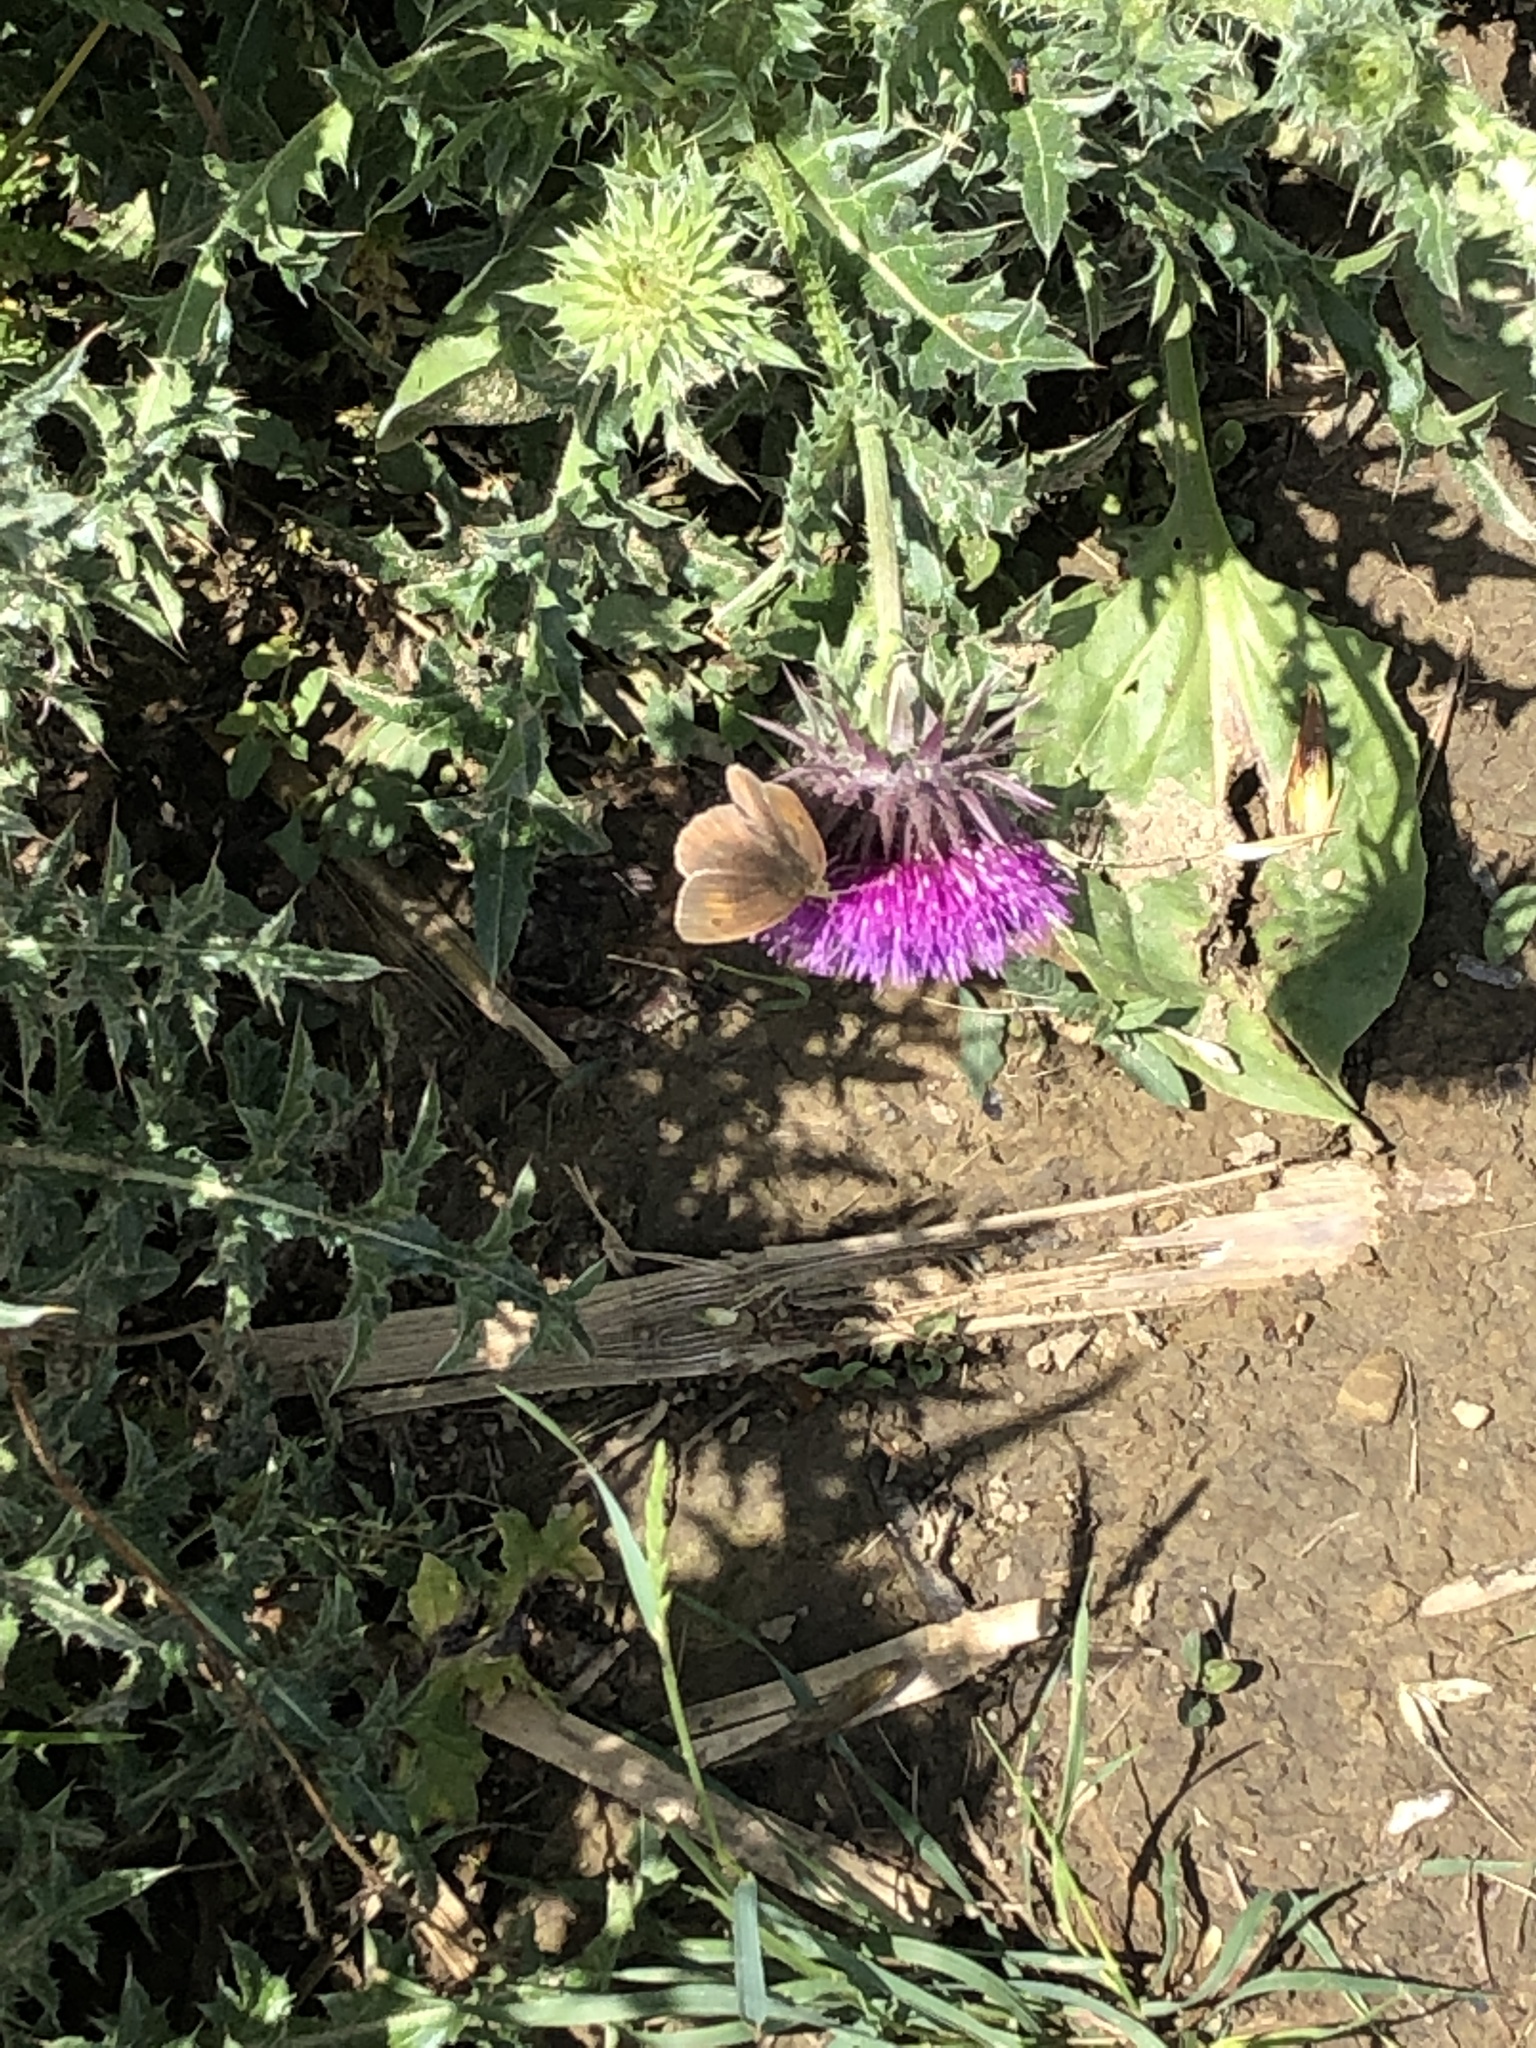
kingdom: Animalia
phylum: Arthropoda
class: Insecta
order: Lepidoptera
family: Nymphalidae
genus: Maniola
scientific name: Maniola jurtina
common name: Meadow brown
